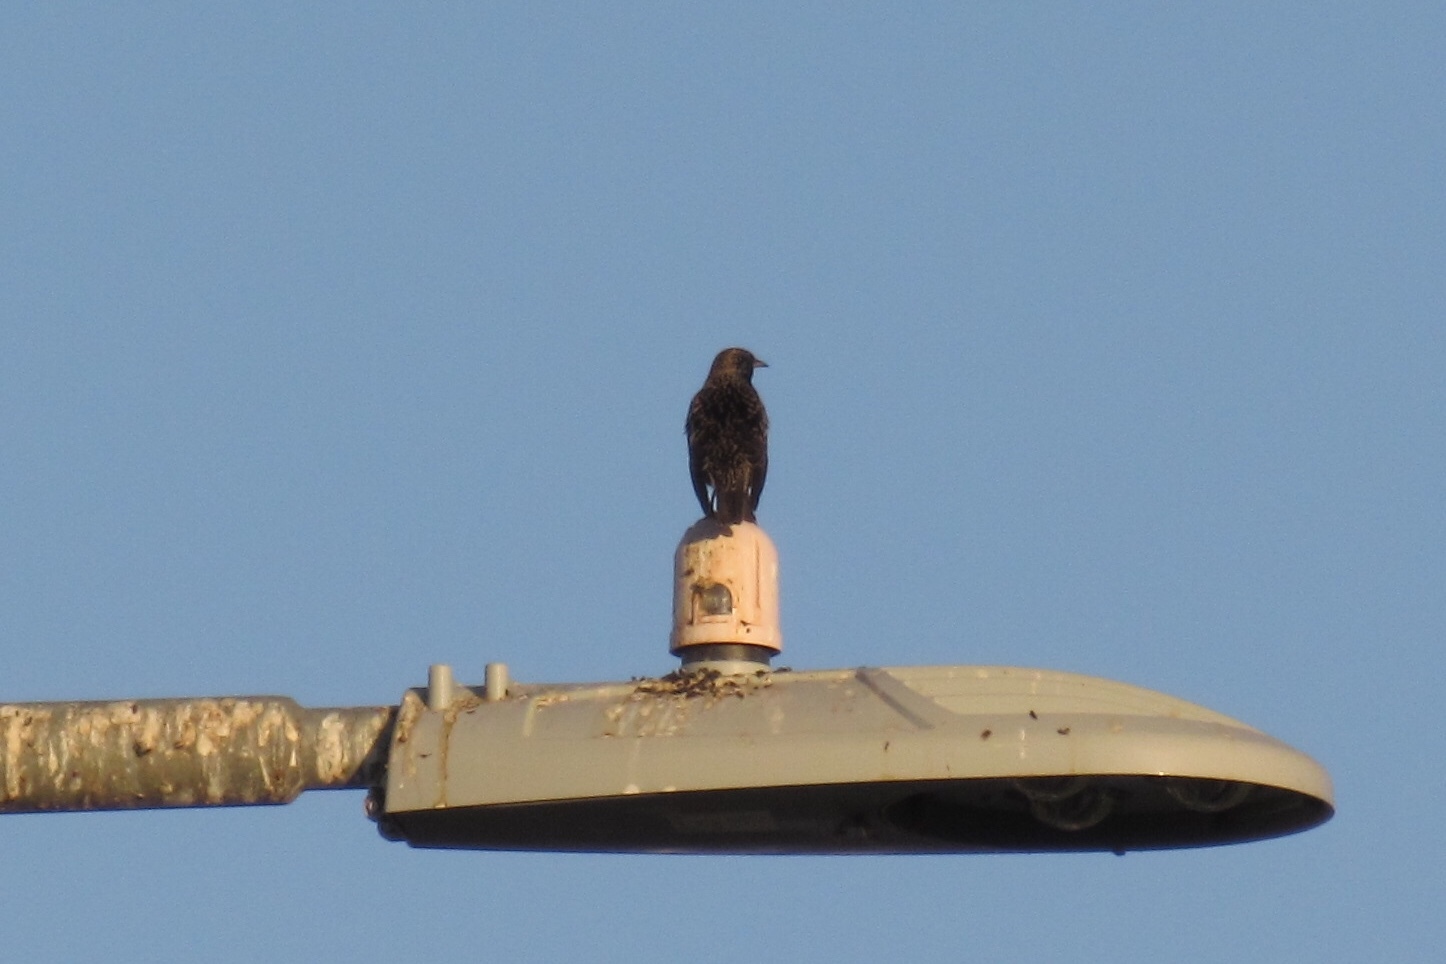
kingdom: Animalia
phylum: Chordata
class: Aves
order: Passeriformes
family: Sturnidae
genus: Sturnus
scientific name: Sturnus vulgaris
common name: Common starling
